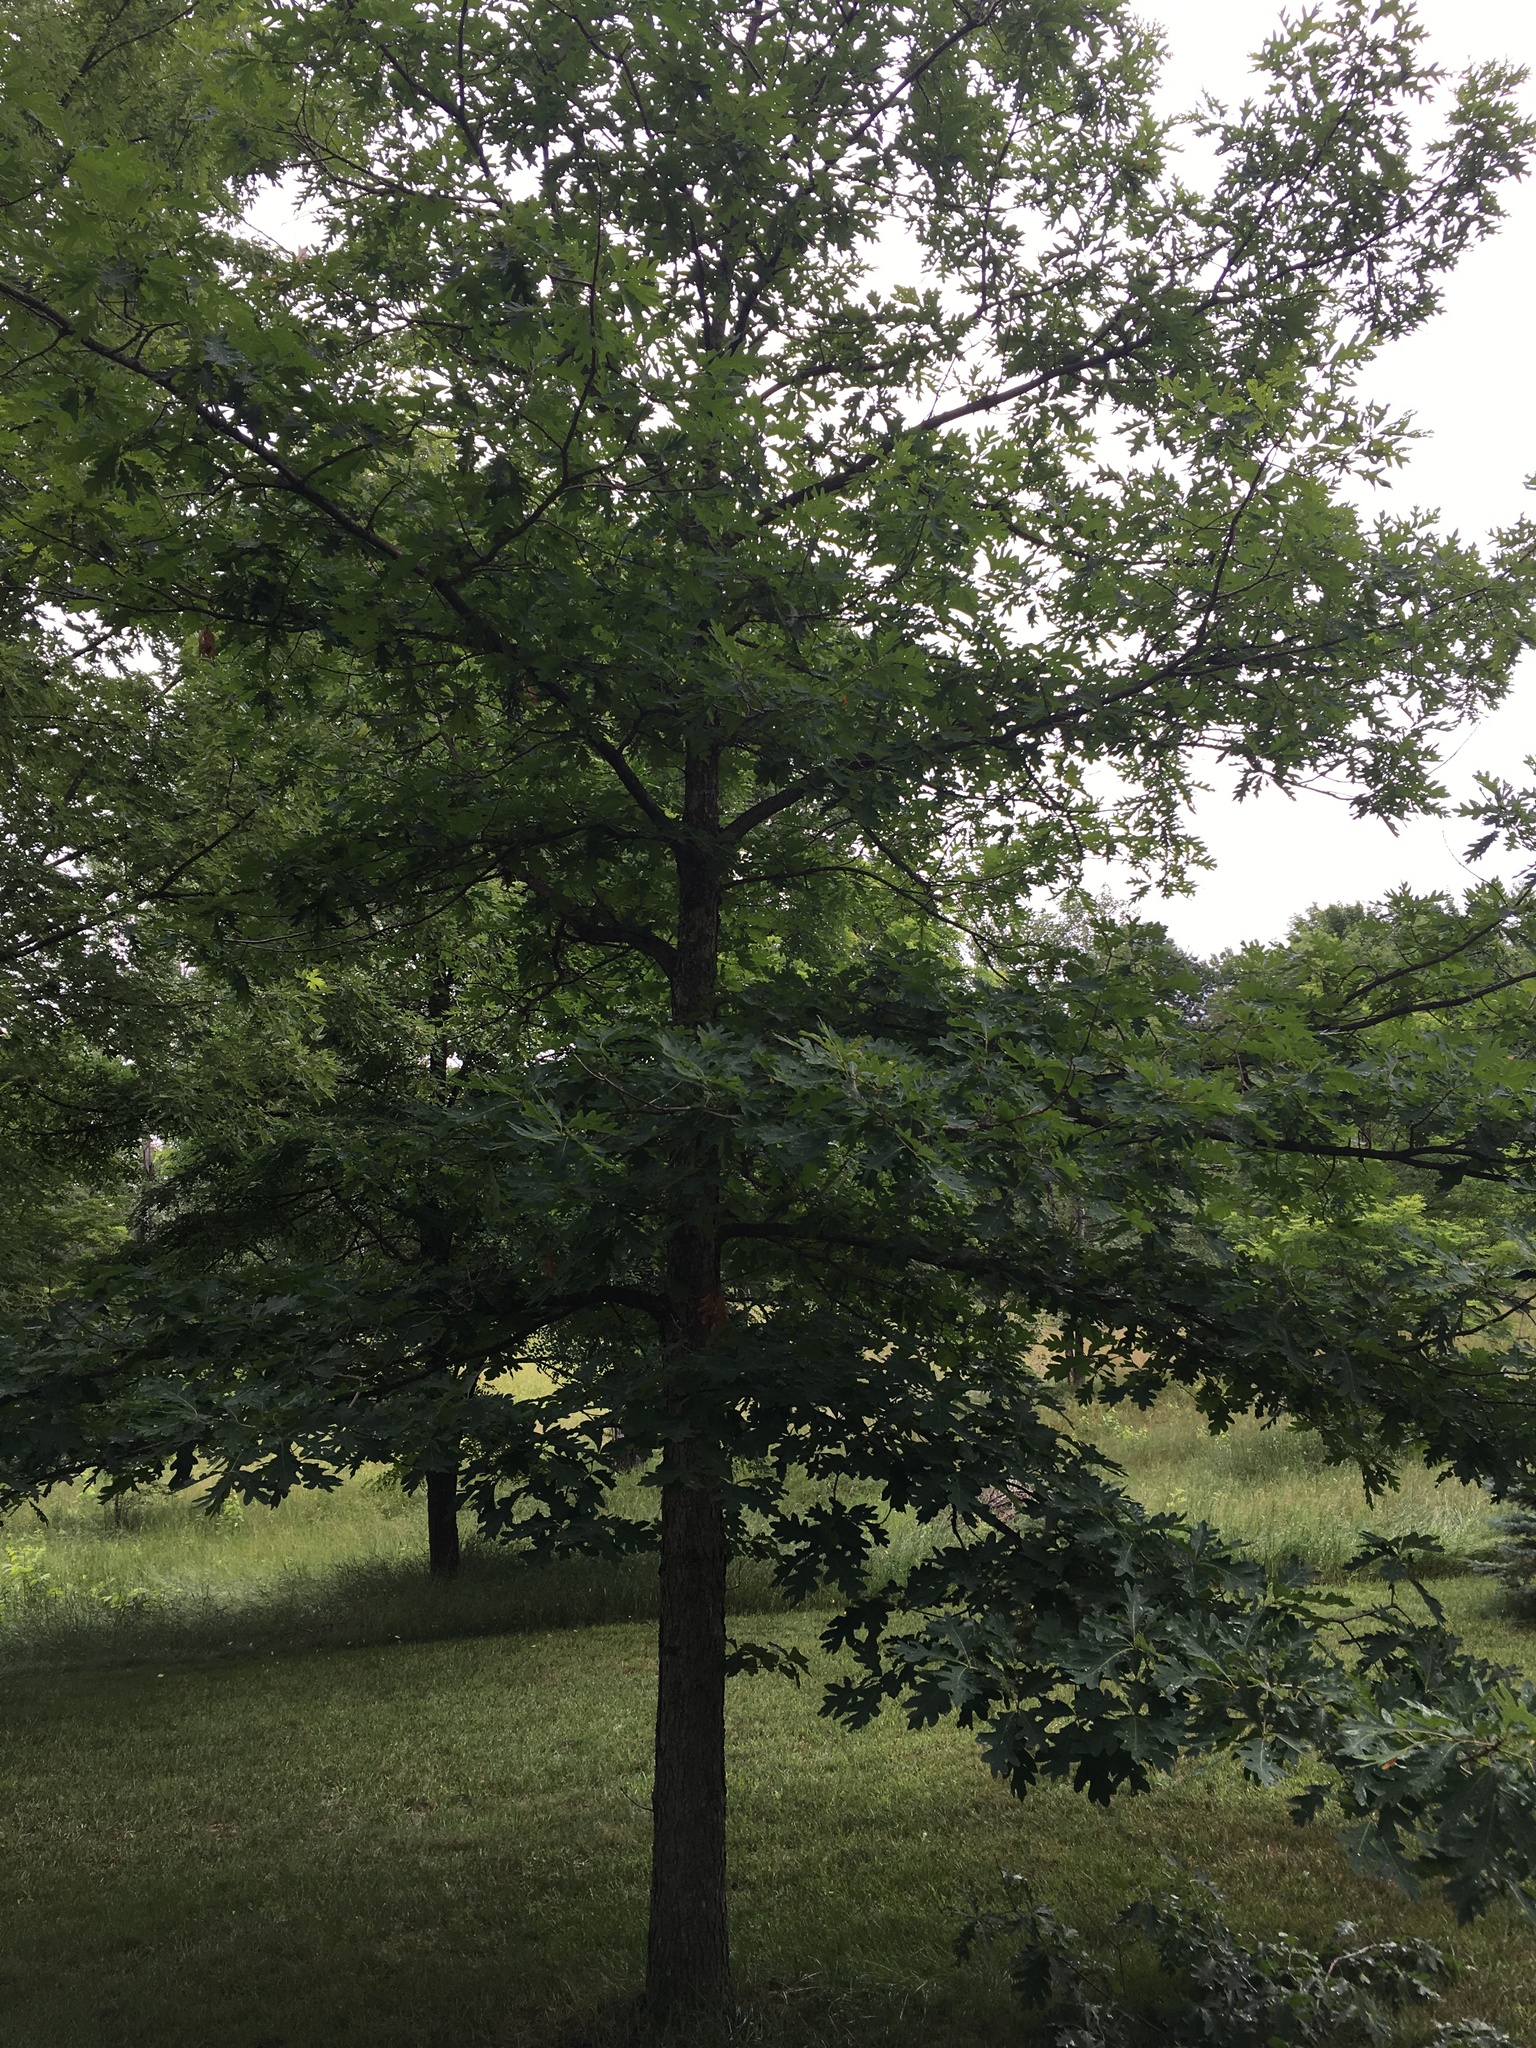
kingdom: Plantae
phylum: Tracheophyta
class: Magnoliopsida
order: Fagales
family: Fagaceae
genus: Quercus
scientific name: Quercus alba
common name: White oak
